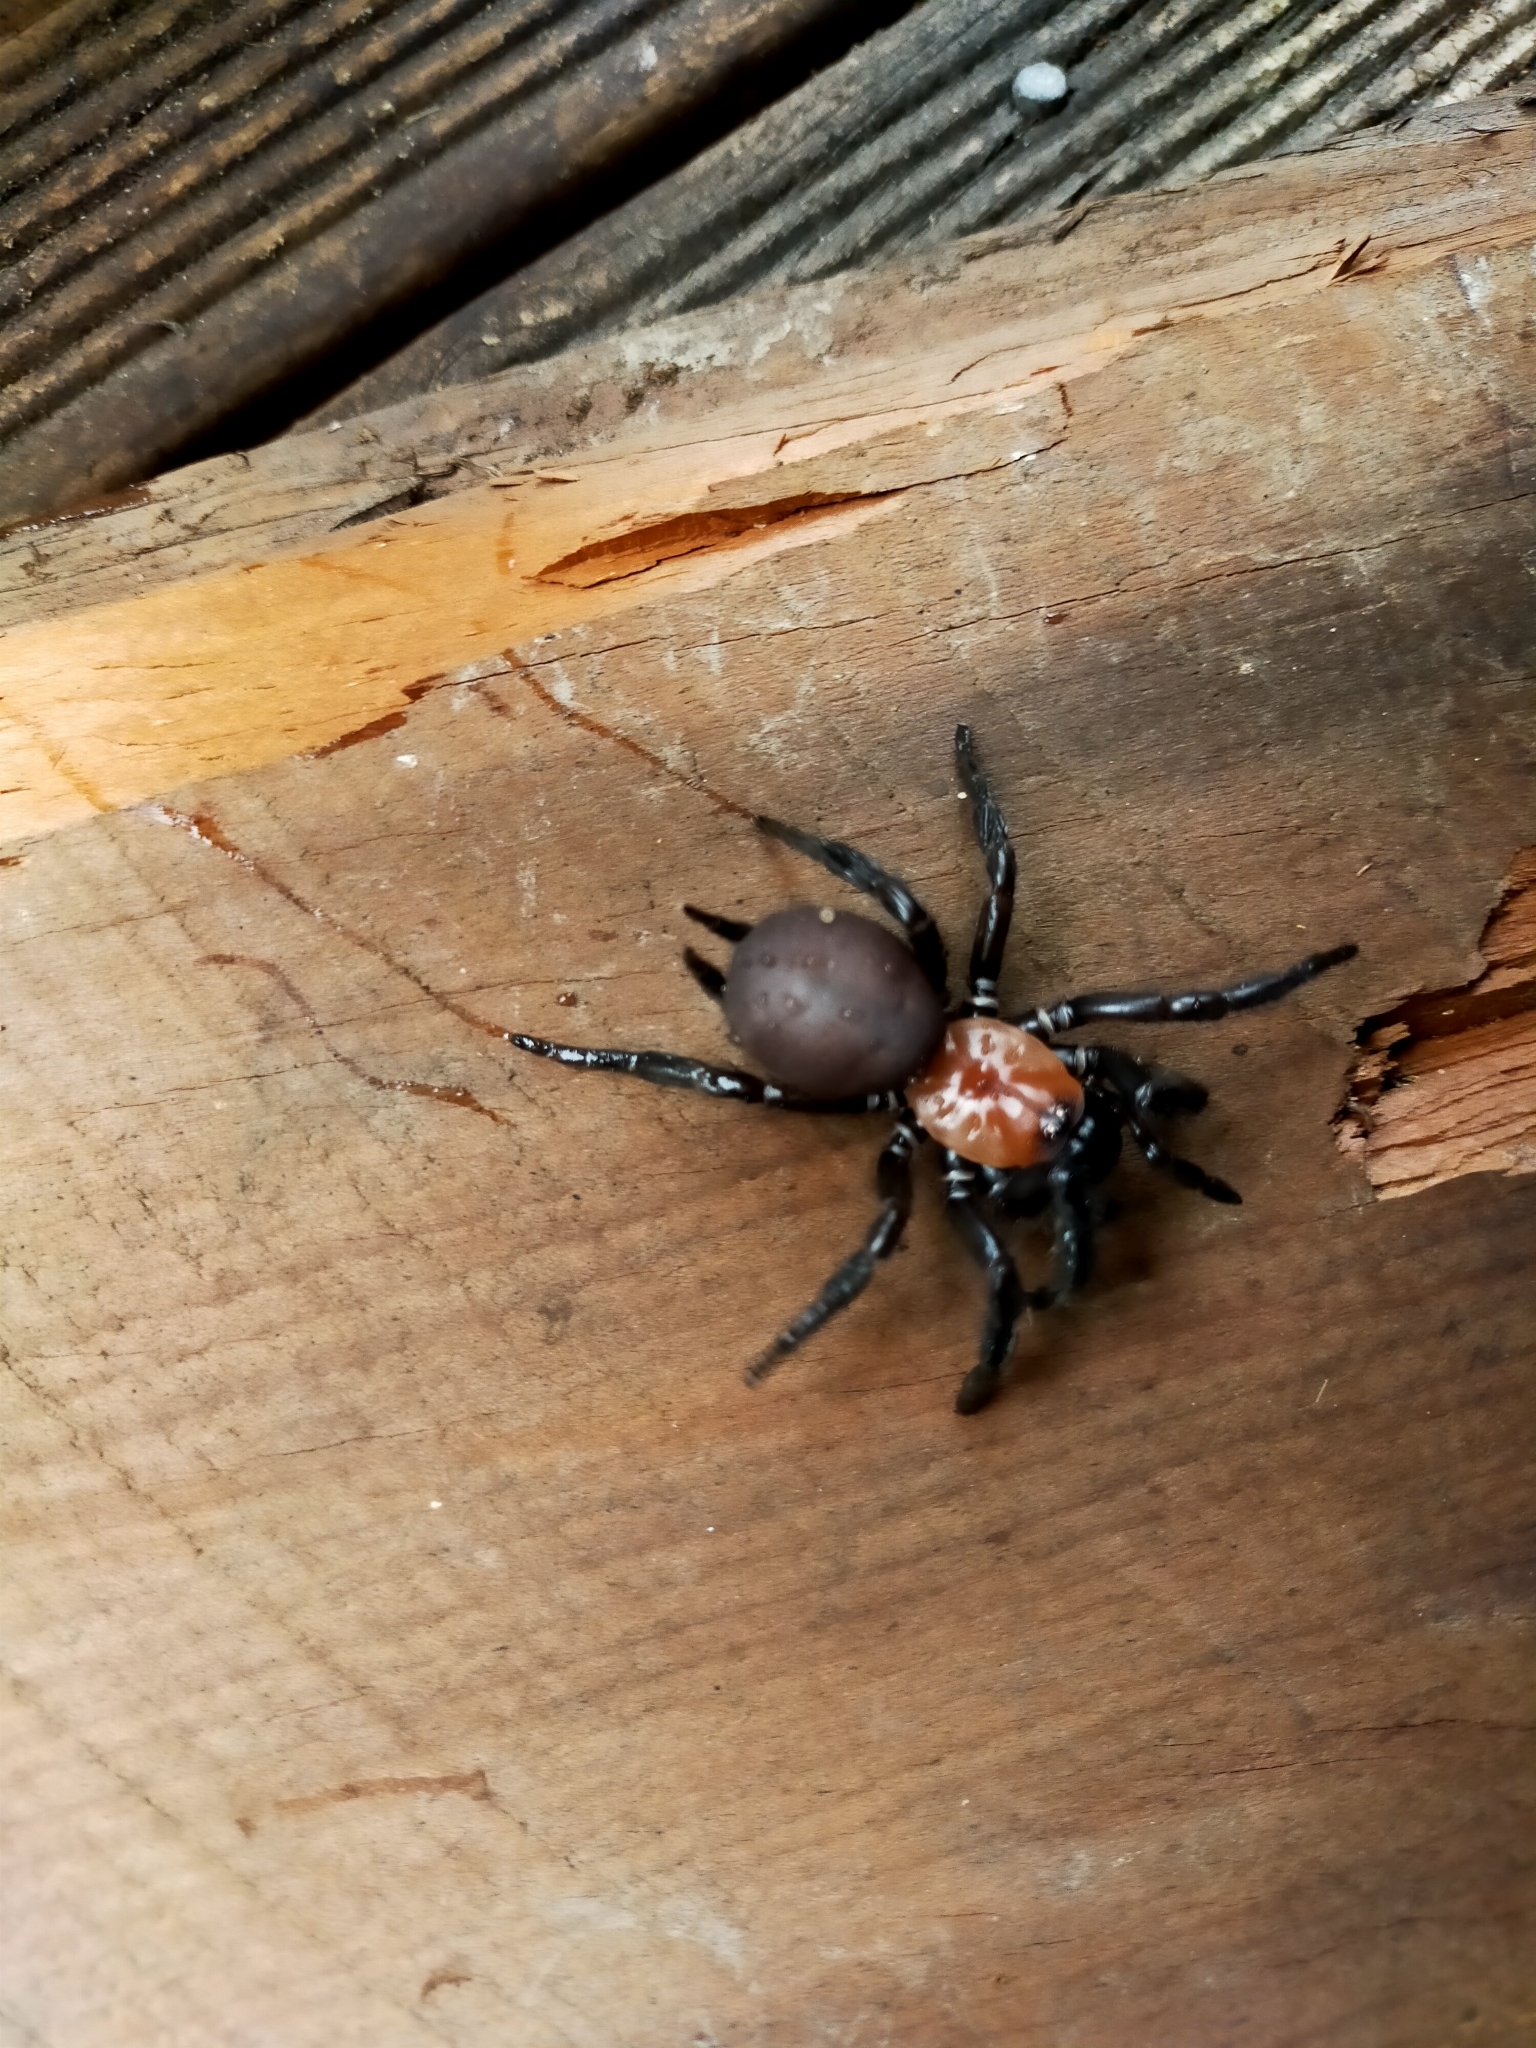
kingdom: Animalia
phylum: Arthropoda
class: Arachnida
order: Araneae
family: Porrhothelidae
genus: Porrhothele
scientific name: Porrhothele antipodiana
